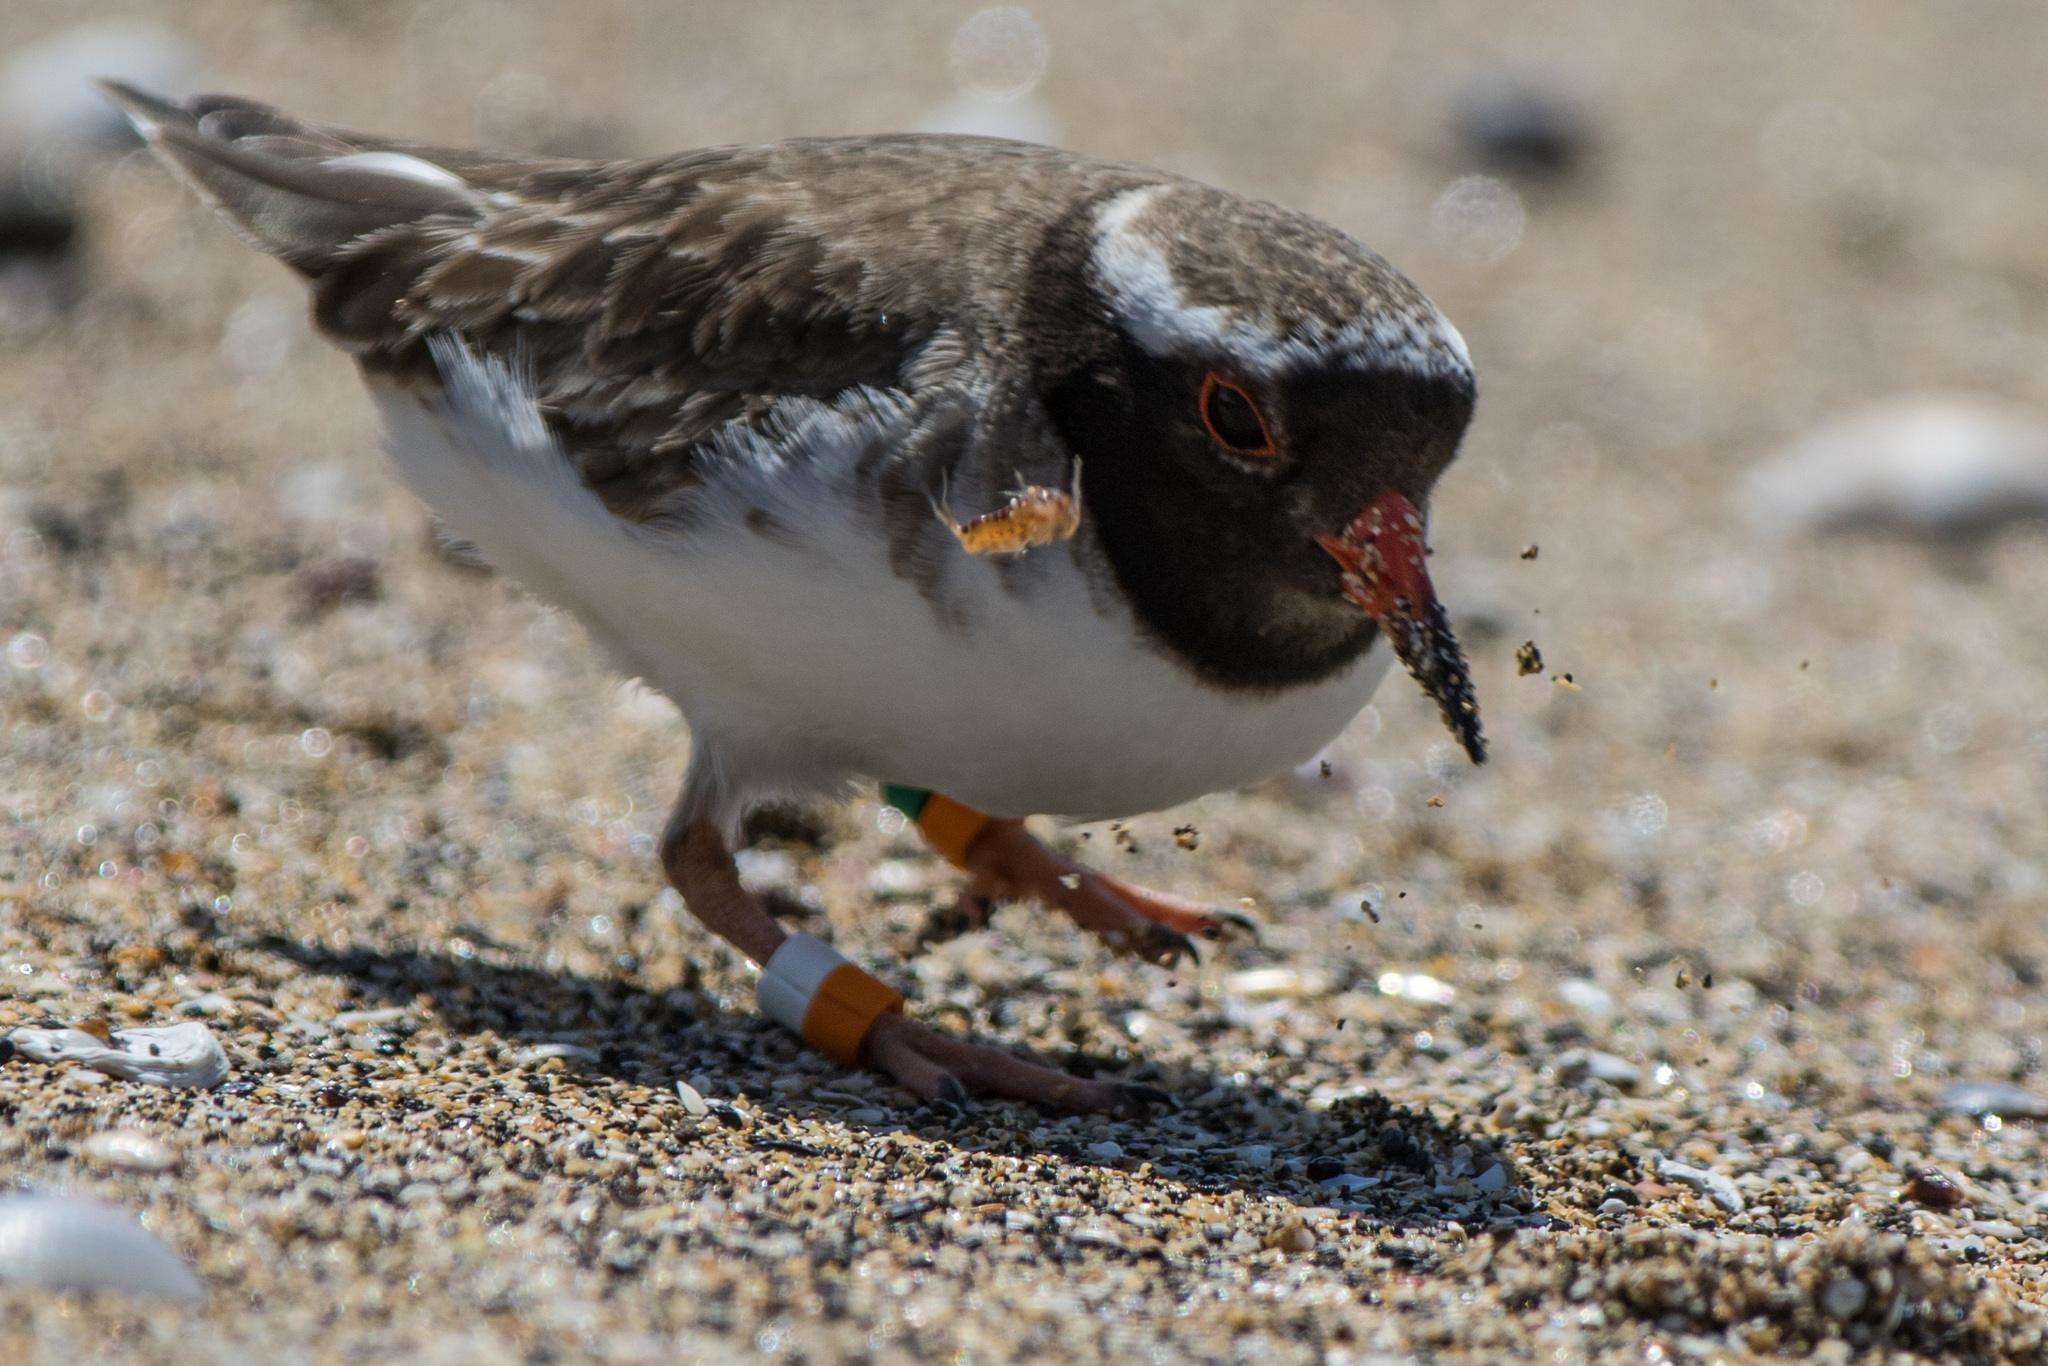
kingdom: Animalia
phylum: Chordata
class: Aves
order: Charadriiformes
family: Charadriidae
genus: Thinornis
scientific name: Thinornis novaeseelandiae
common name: Shore dotterel
